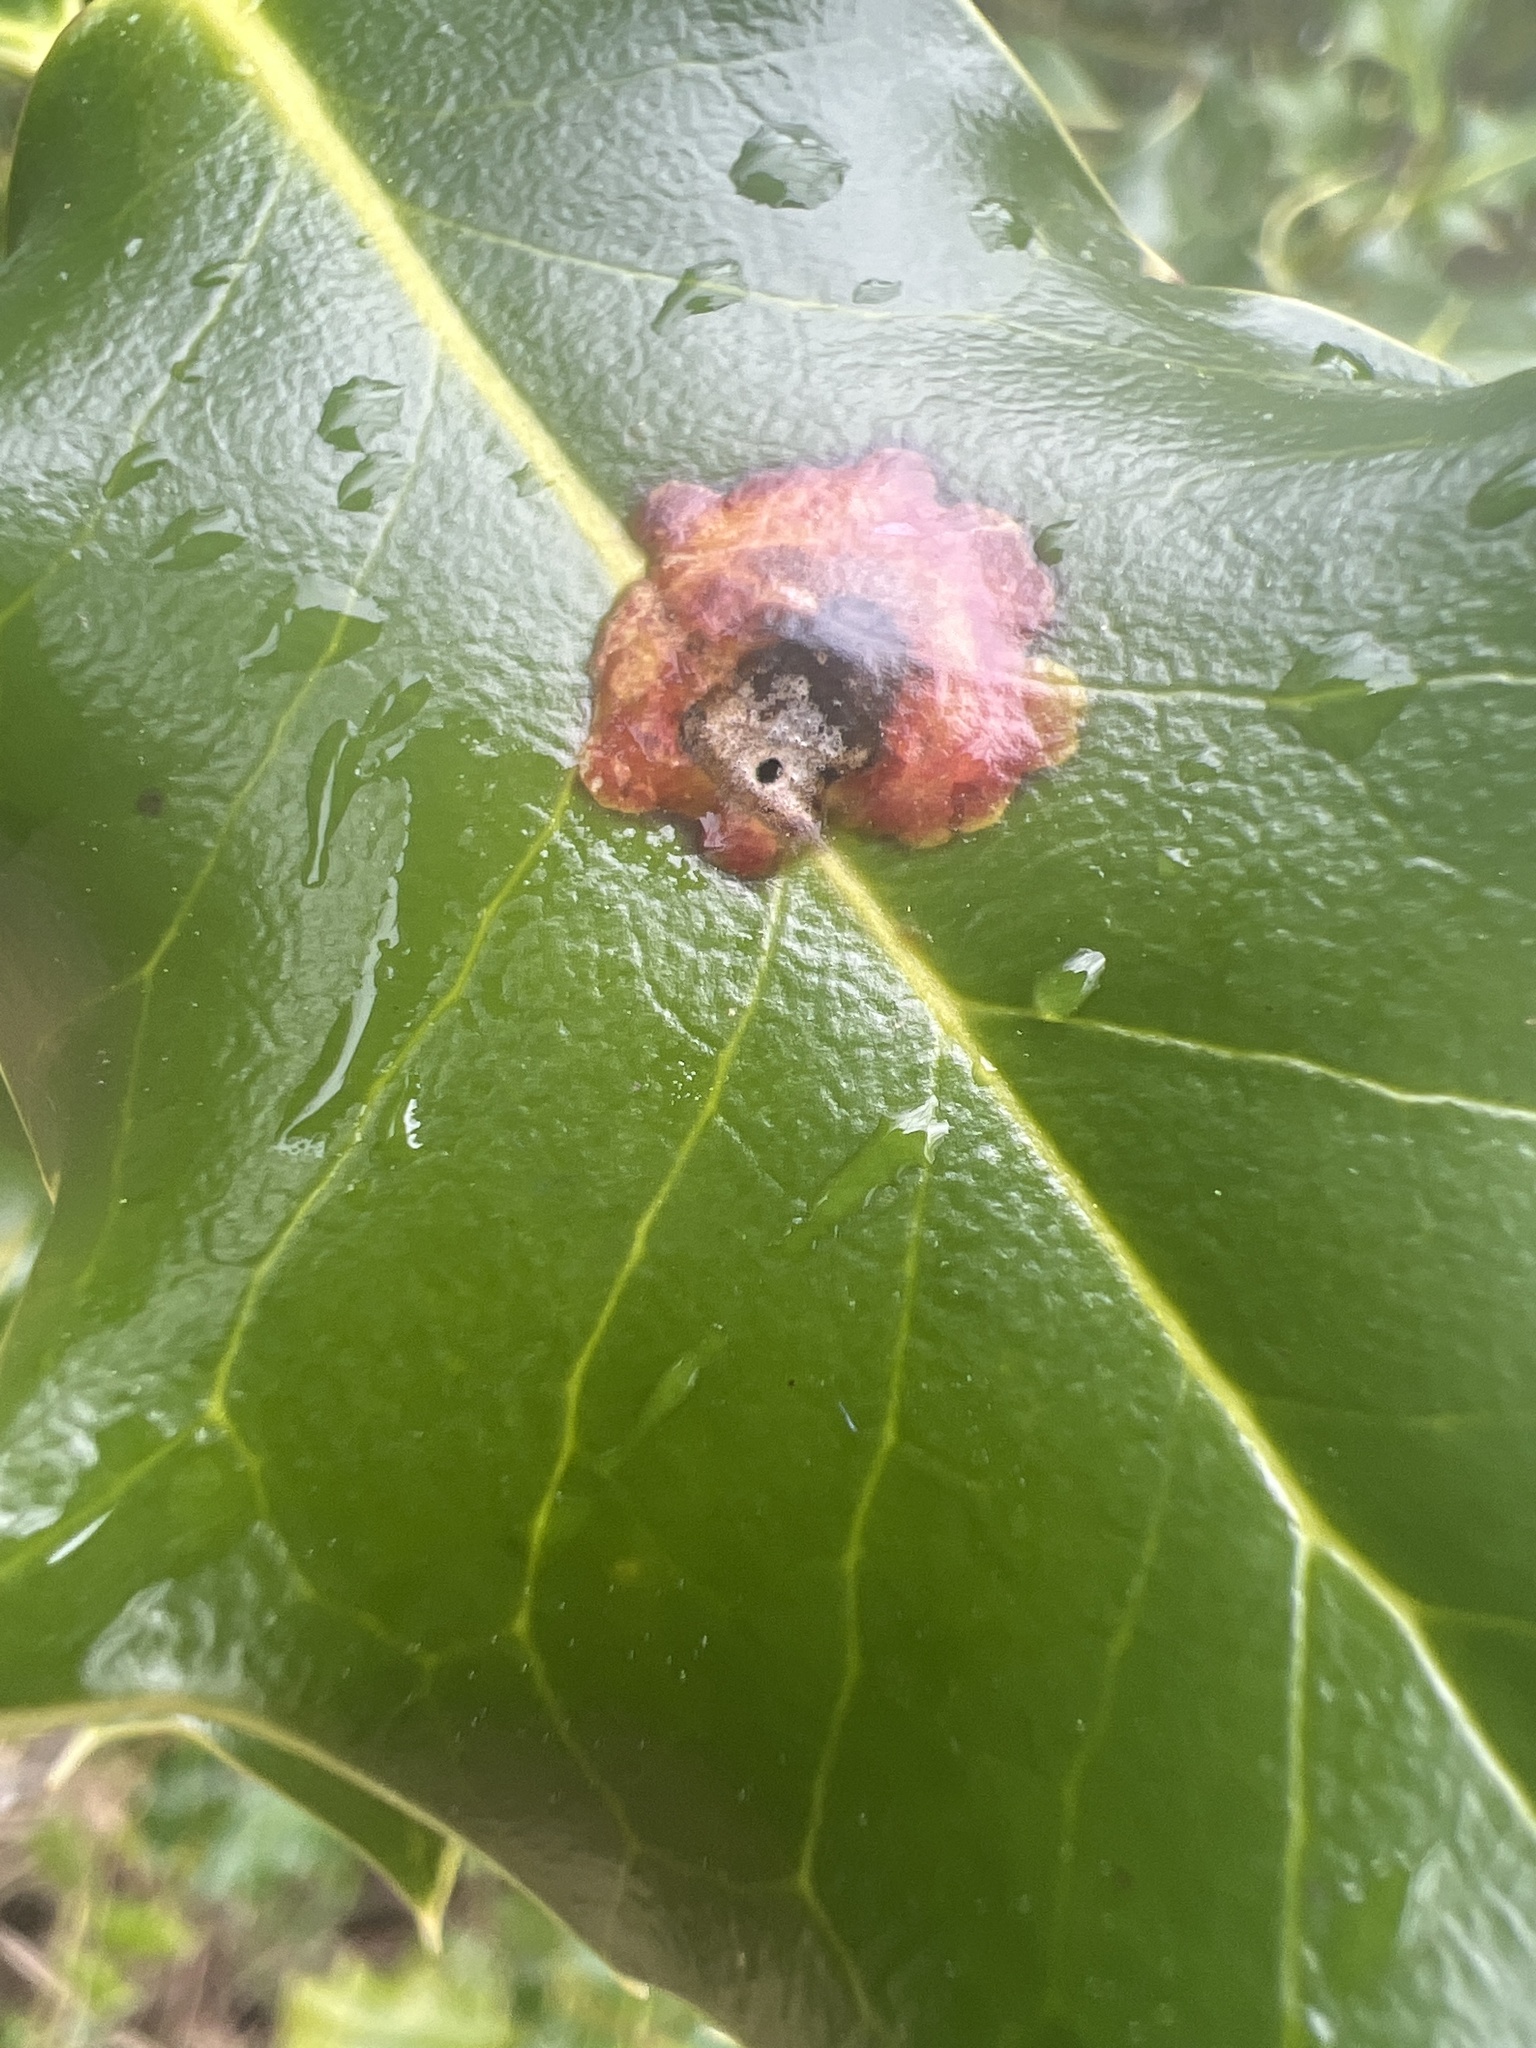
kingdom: Animalia
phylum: Arthropoda
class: Insecta
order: Diptera
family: Agromyzidae
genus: Phytomyza
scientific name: Phytomyza ilicis
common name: Holly leafminer
